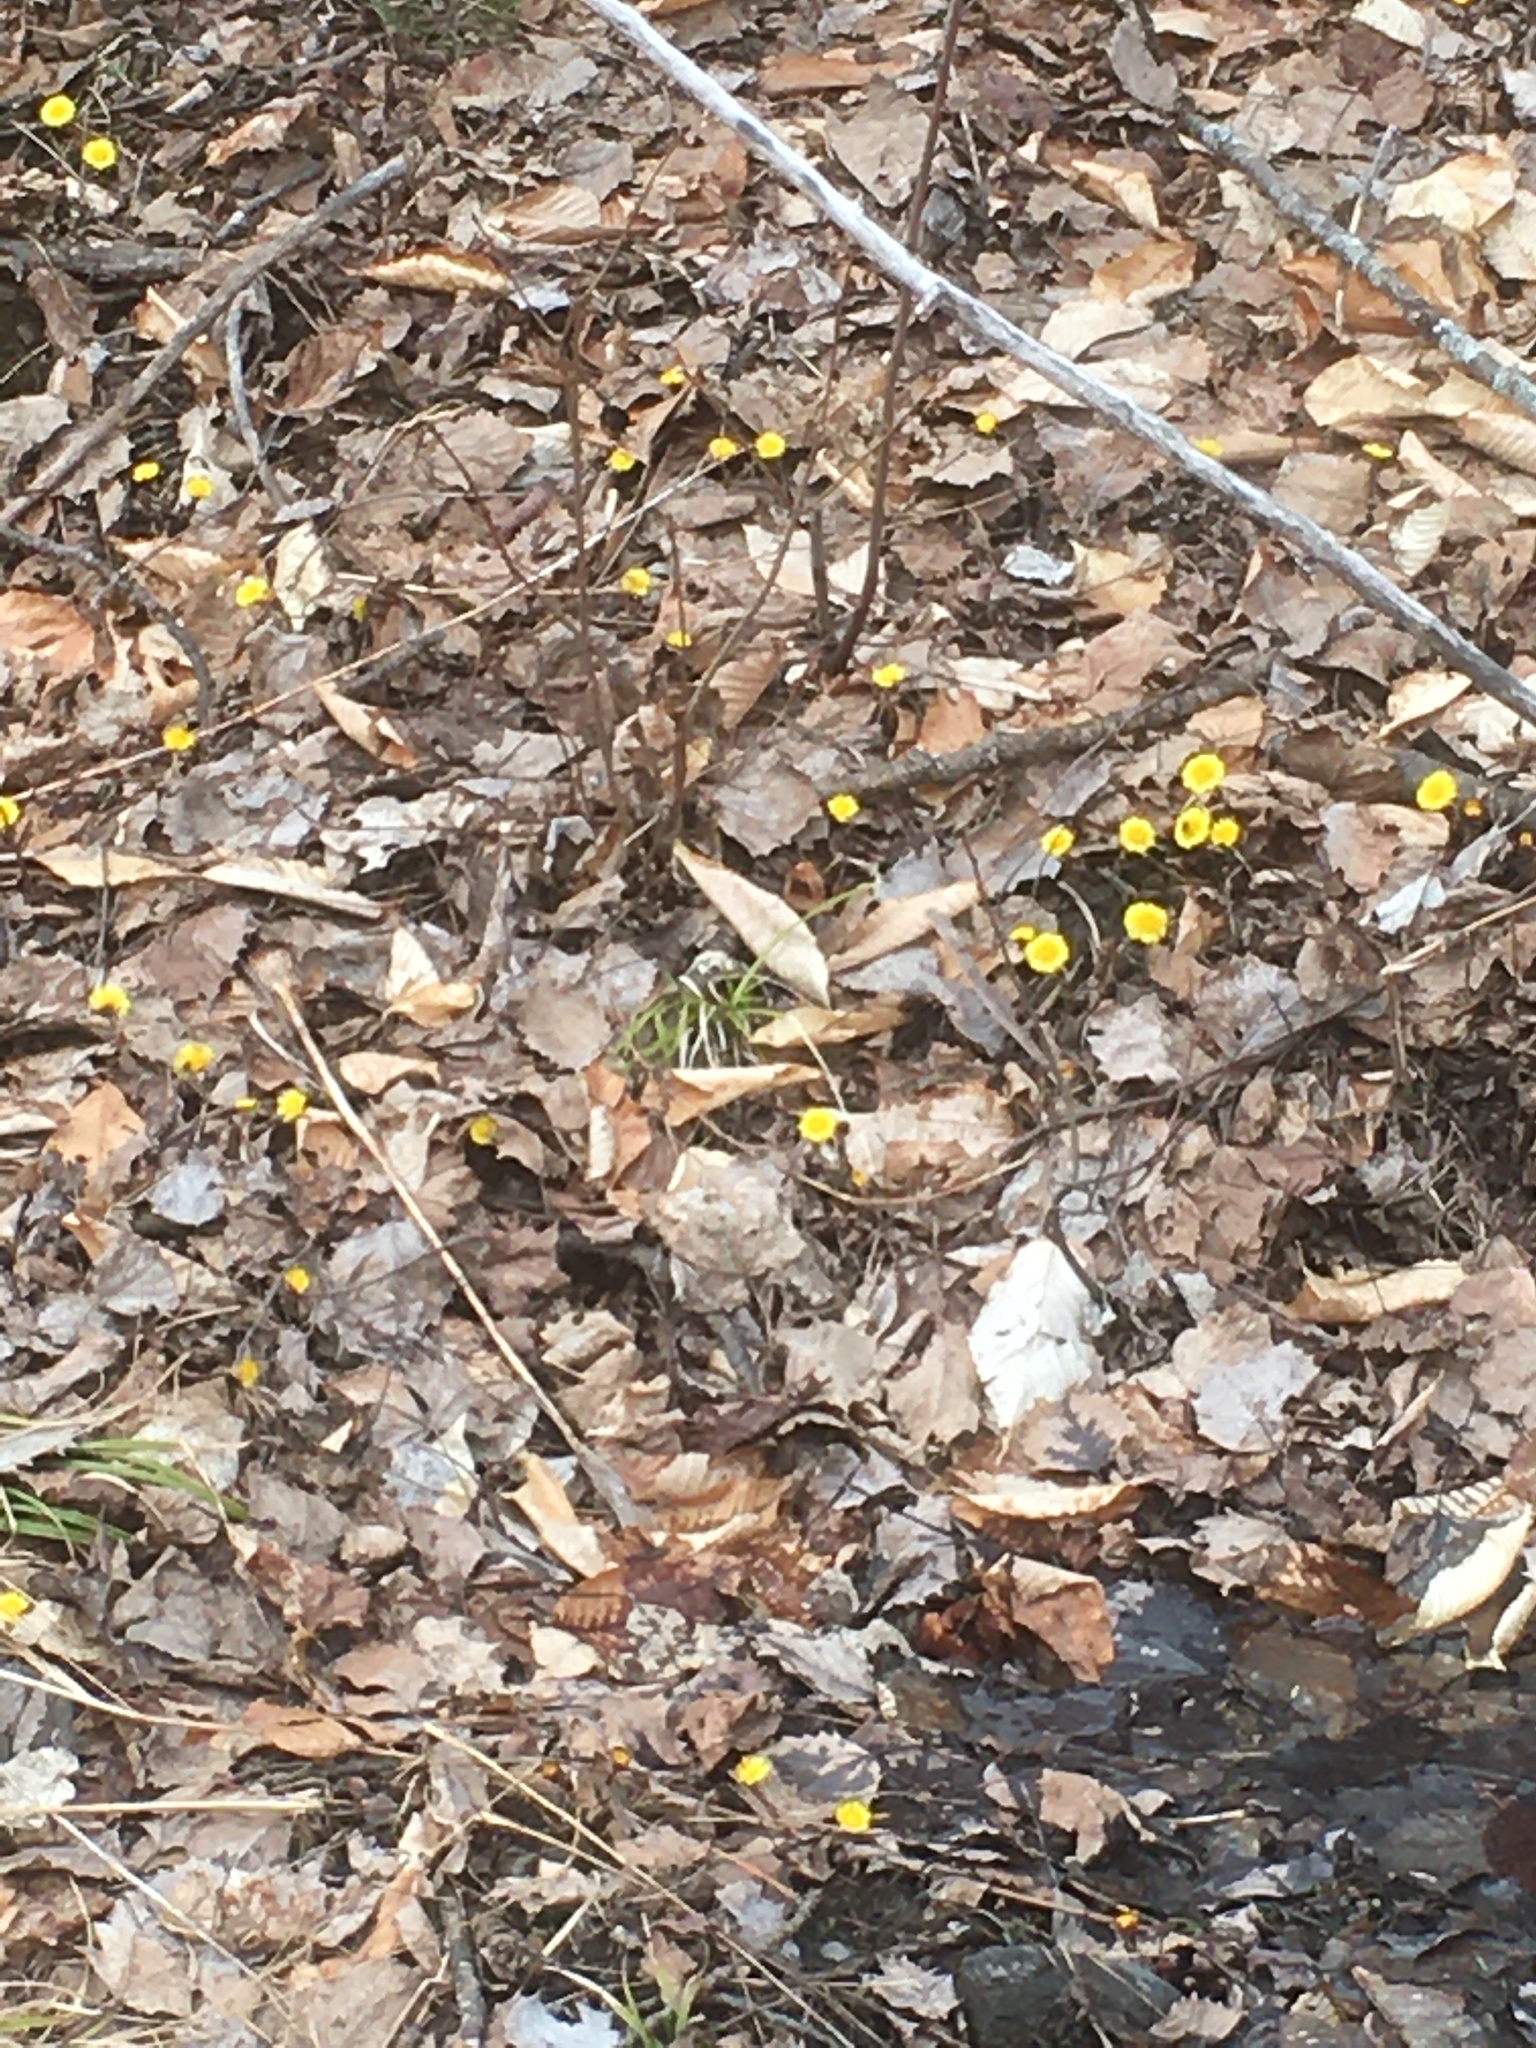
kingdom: Plantae
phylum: Tracheophyta
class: Magnoliopsida
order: Asterales
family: Asteraceae
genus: Tussilago
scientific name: Tussilago farfara
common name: Coltsfoot
